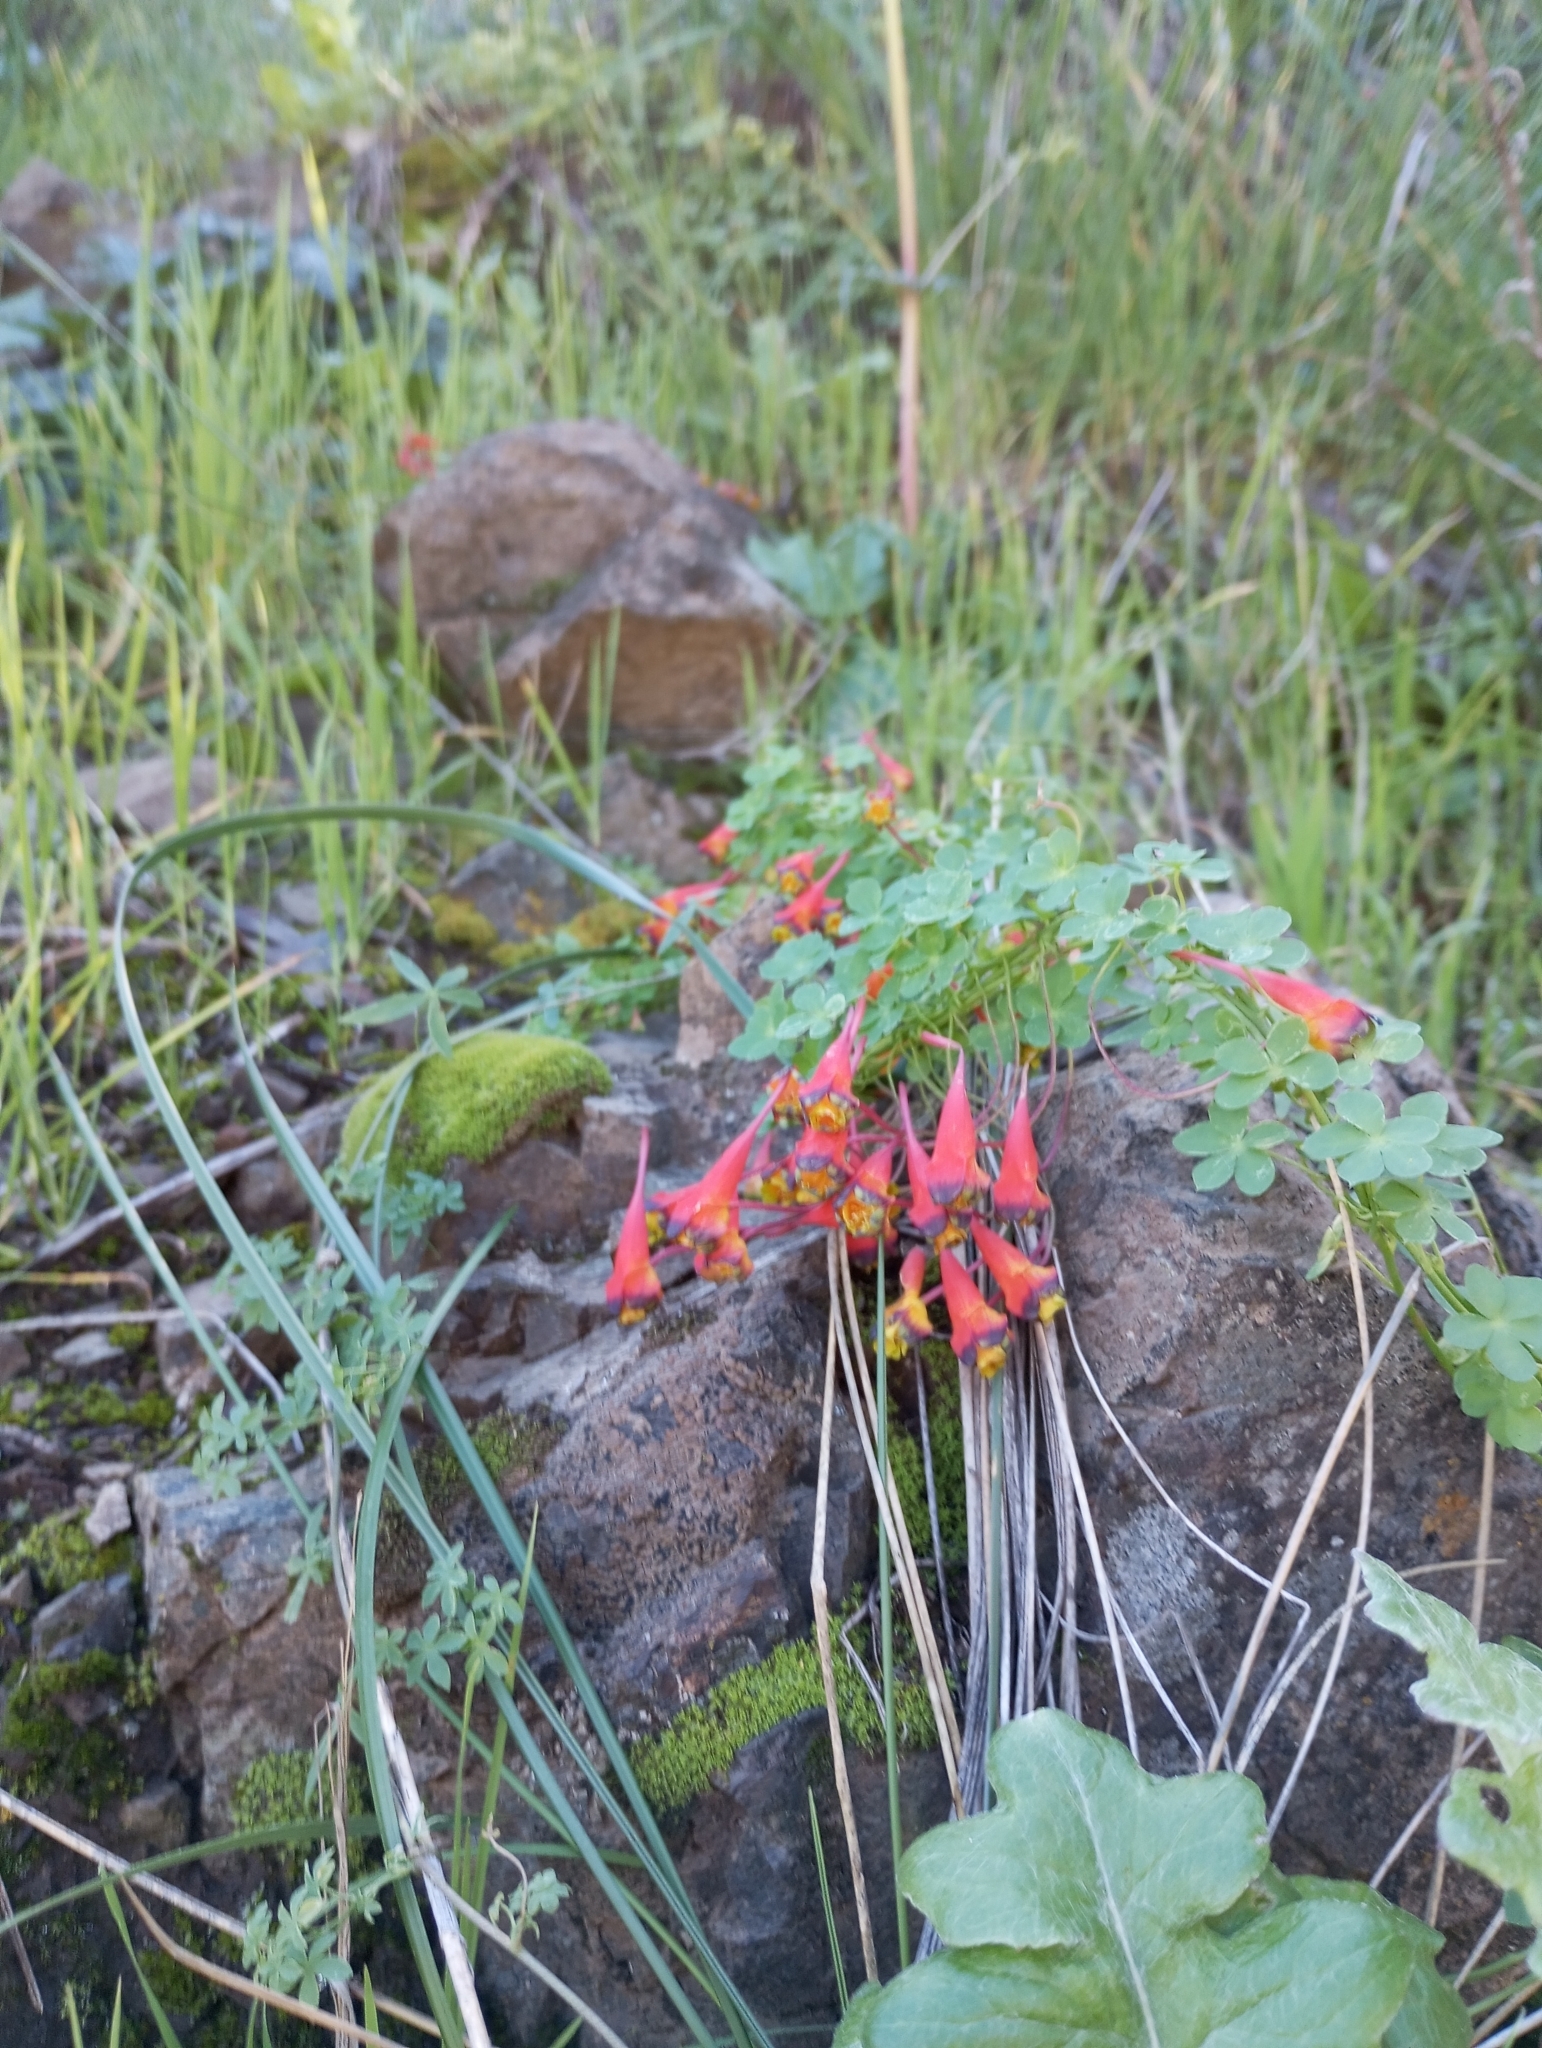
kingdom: Plantae
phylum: Tracheophyta
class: Magnoliopsida
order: Brassicales
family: Tropaeolaceae
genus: Tropaeolum
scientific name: Tropaeolum tricolor
